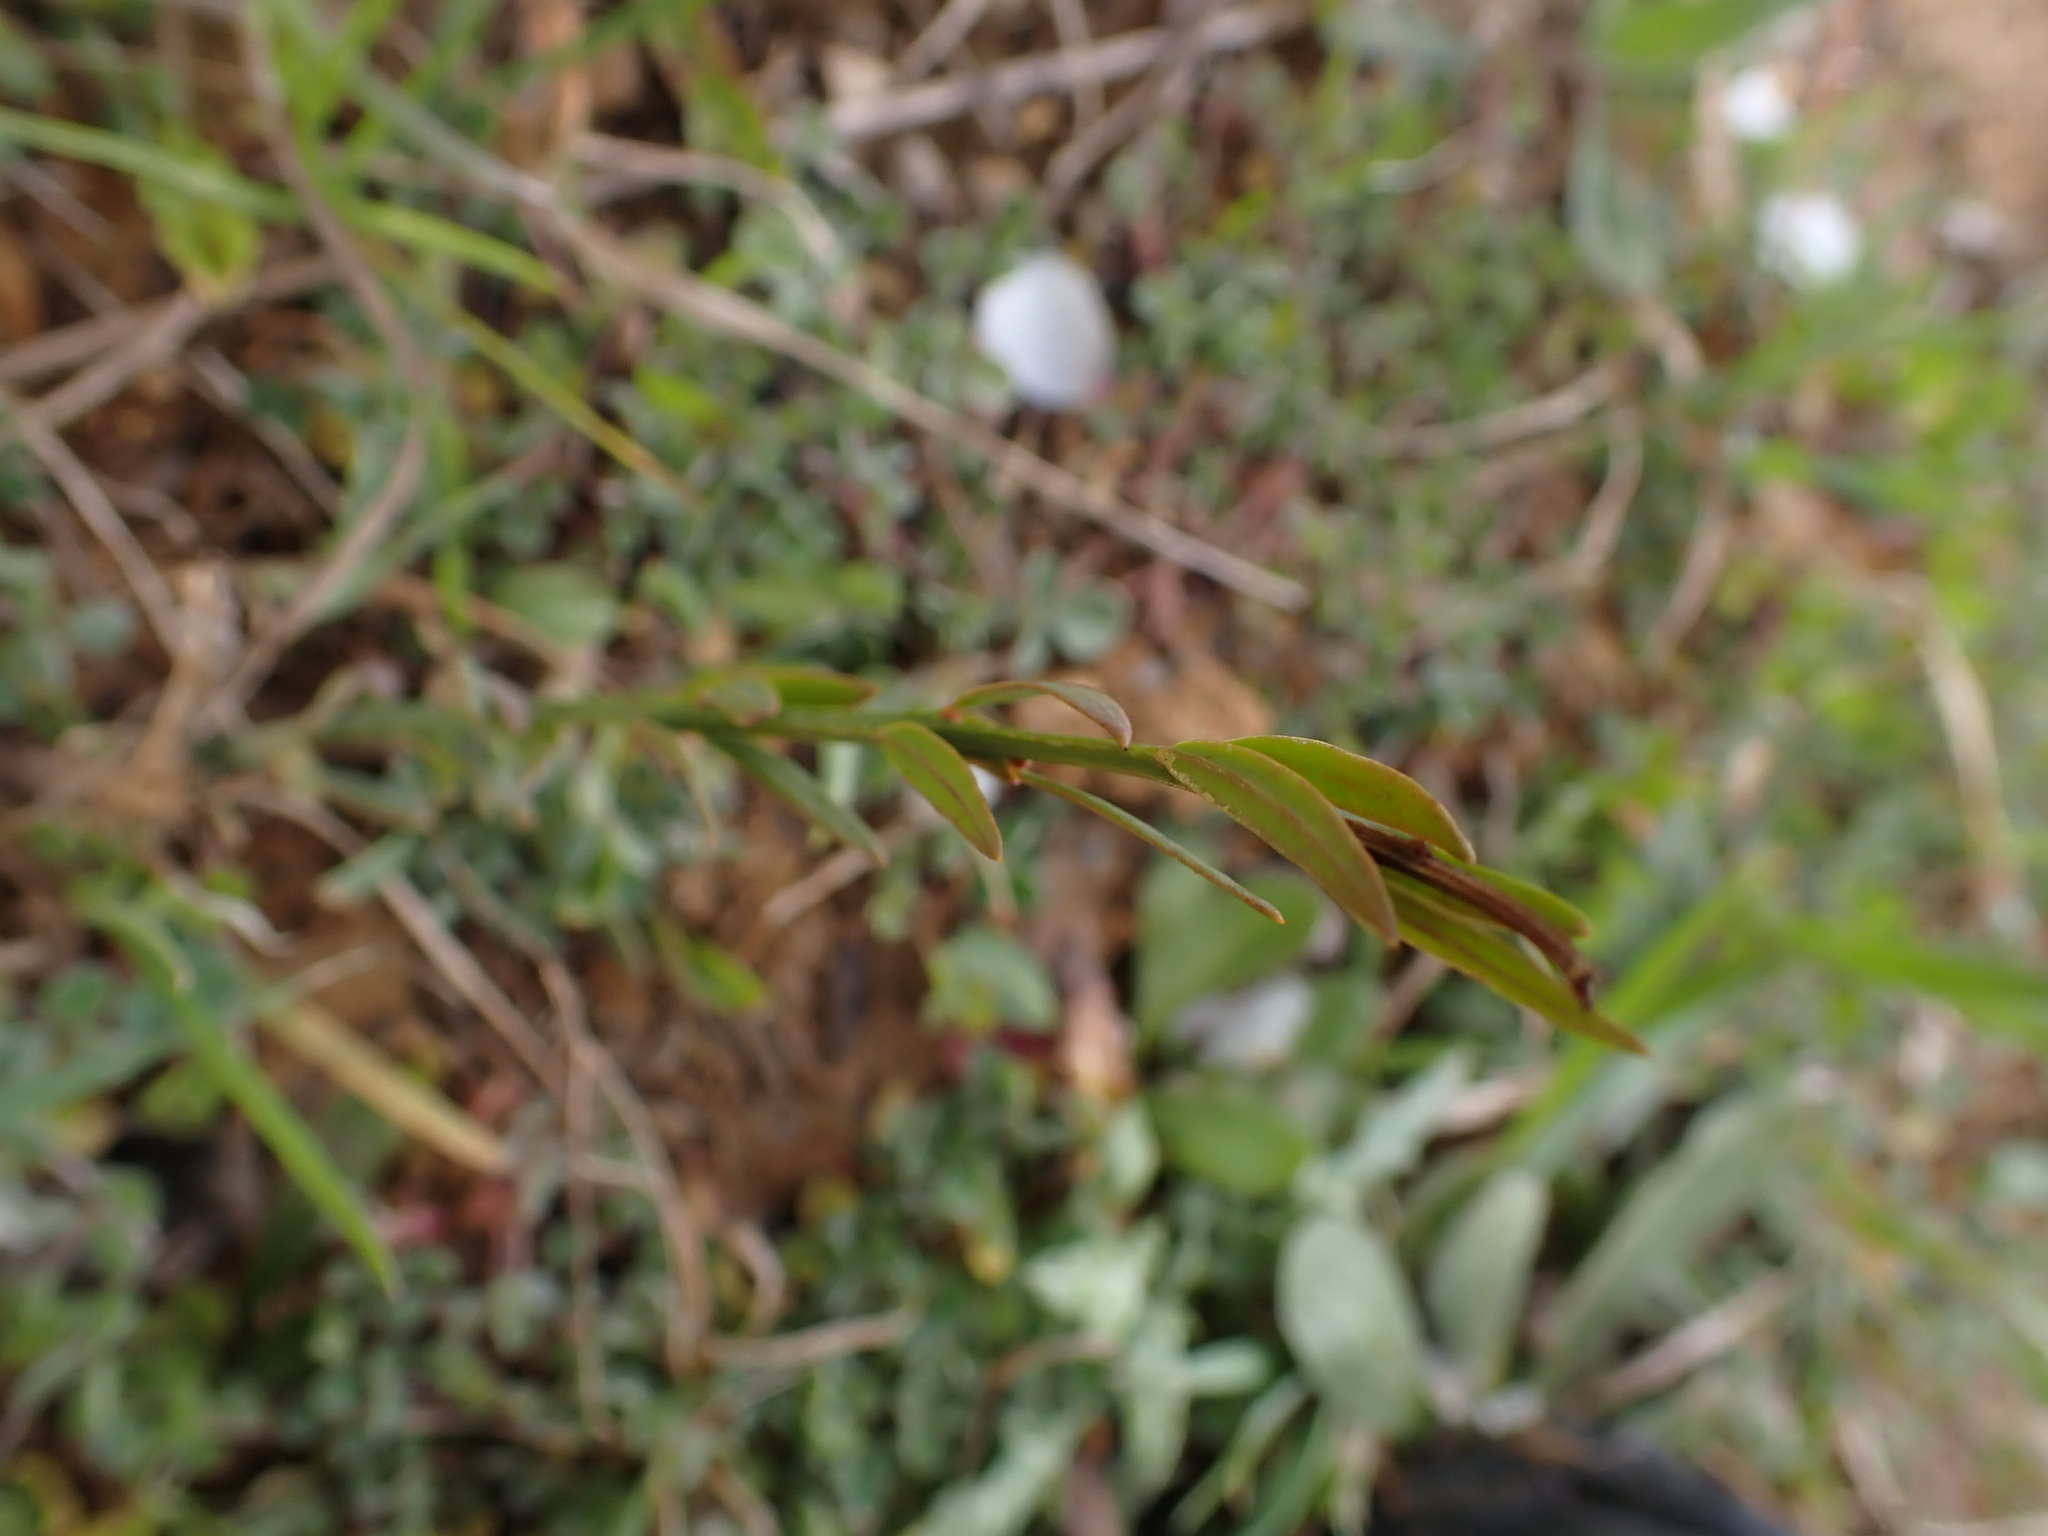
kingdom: Plantae
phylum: Tracheophyta
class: Magnoliopsida
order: Santalales
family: Santalaceae
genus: Osyris
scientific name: Osyris alba
